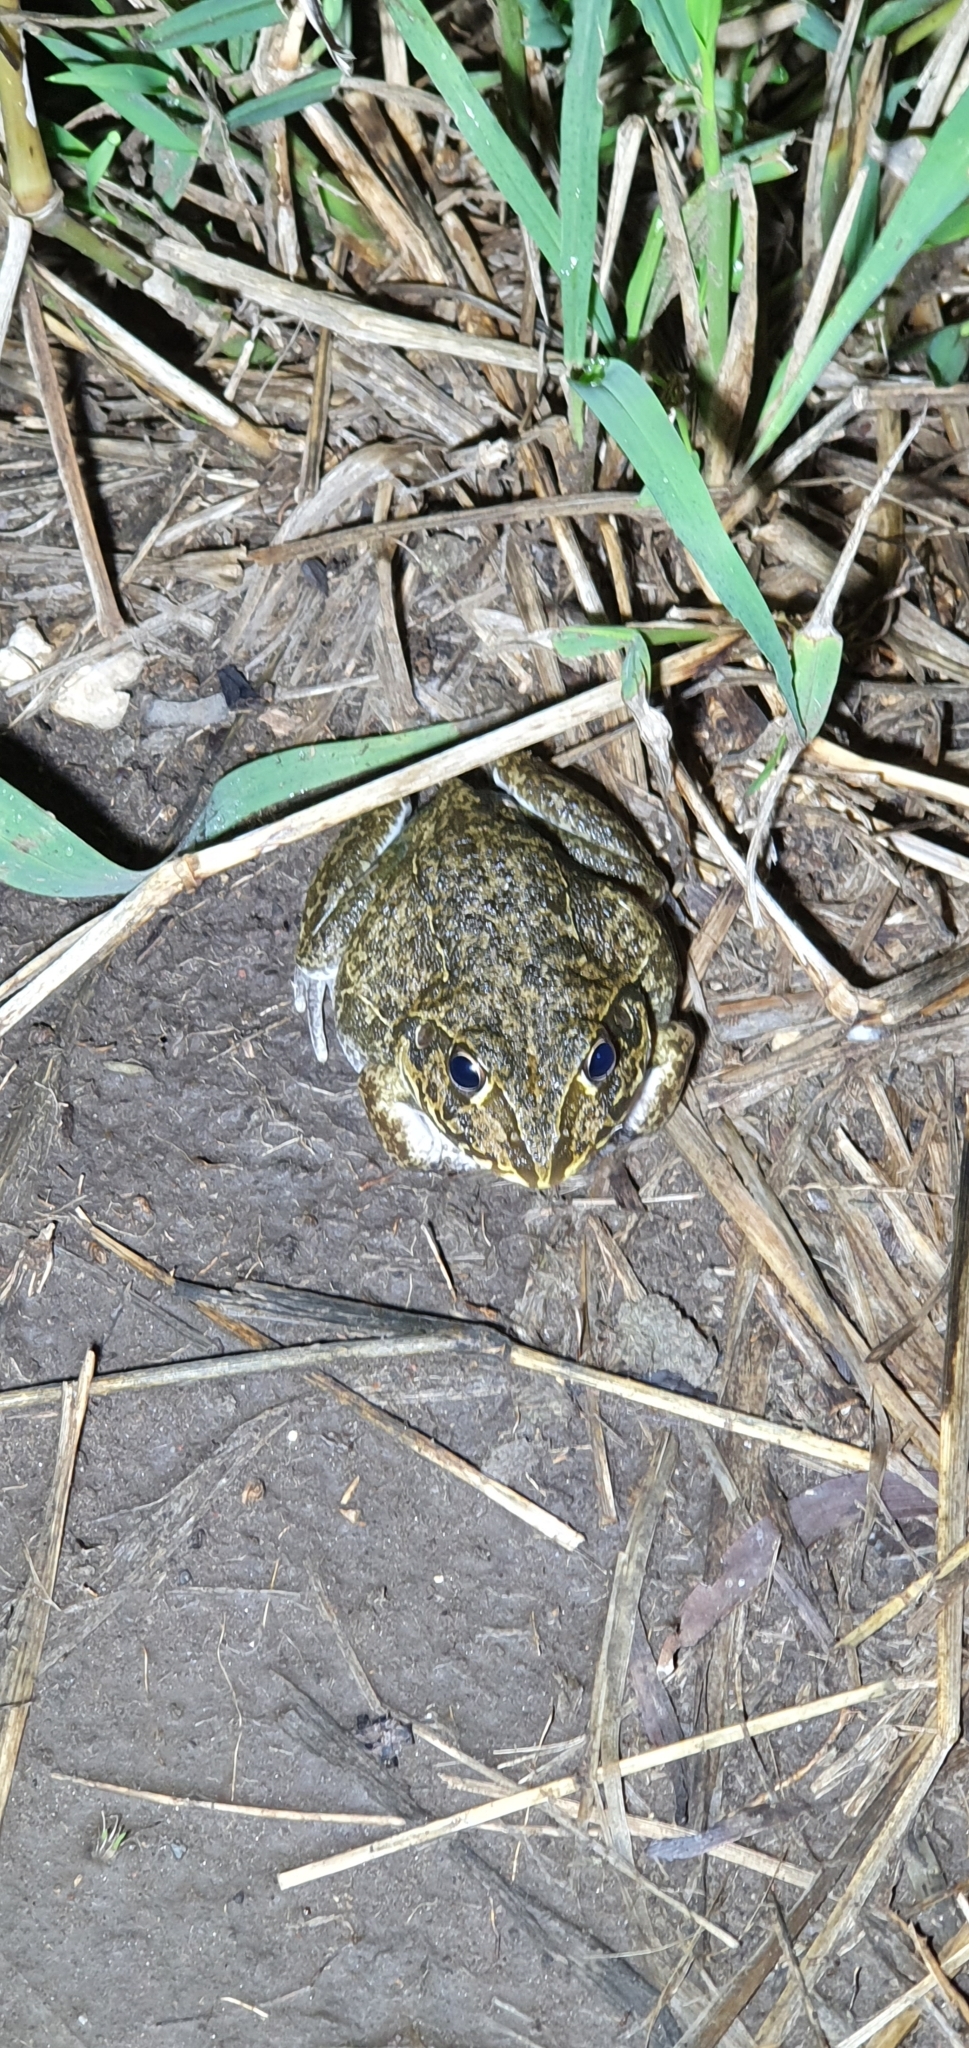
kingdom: Animalia
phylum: Chordata
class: Amphibia
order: Anura
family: Pelodryadidae
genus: Ranoidea
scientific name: Ranoidea novaehollandiae
